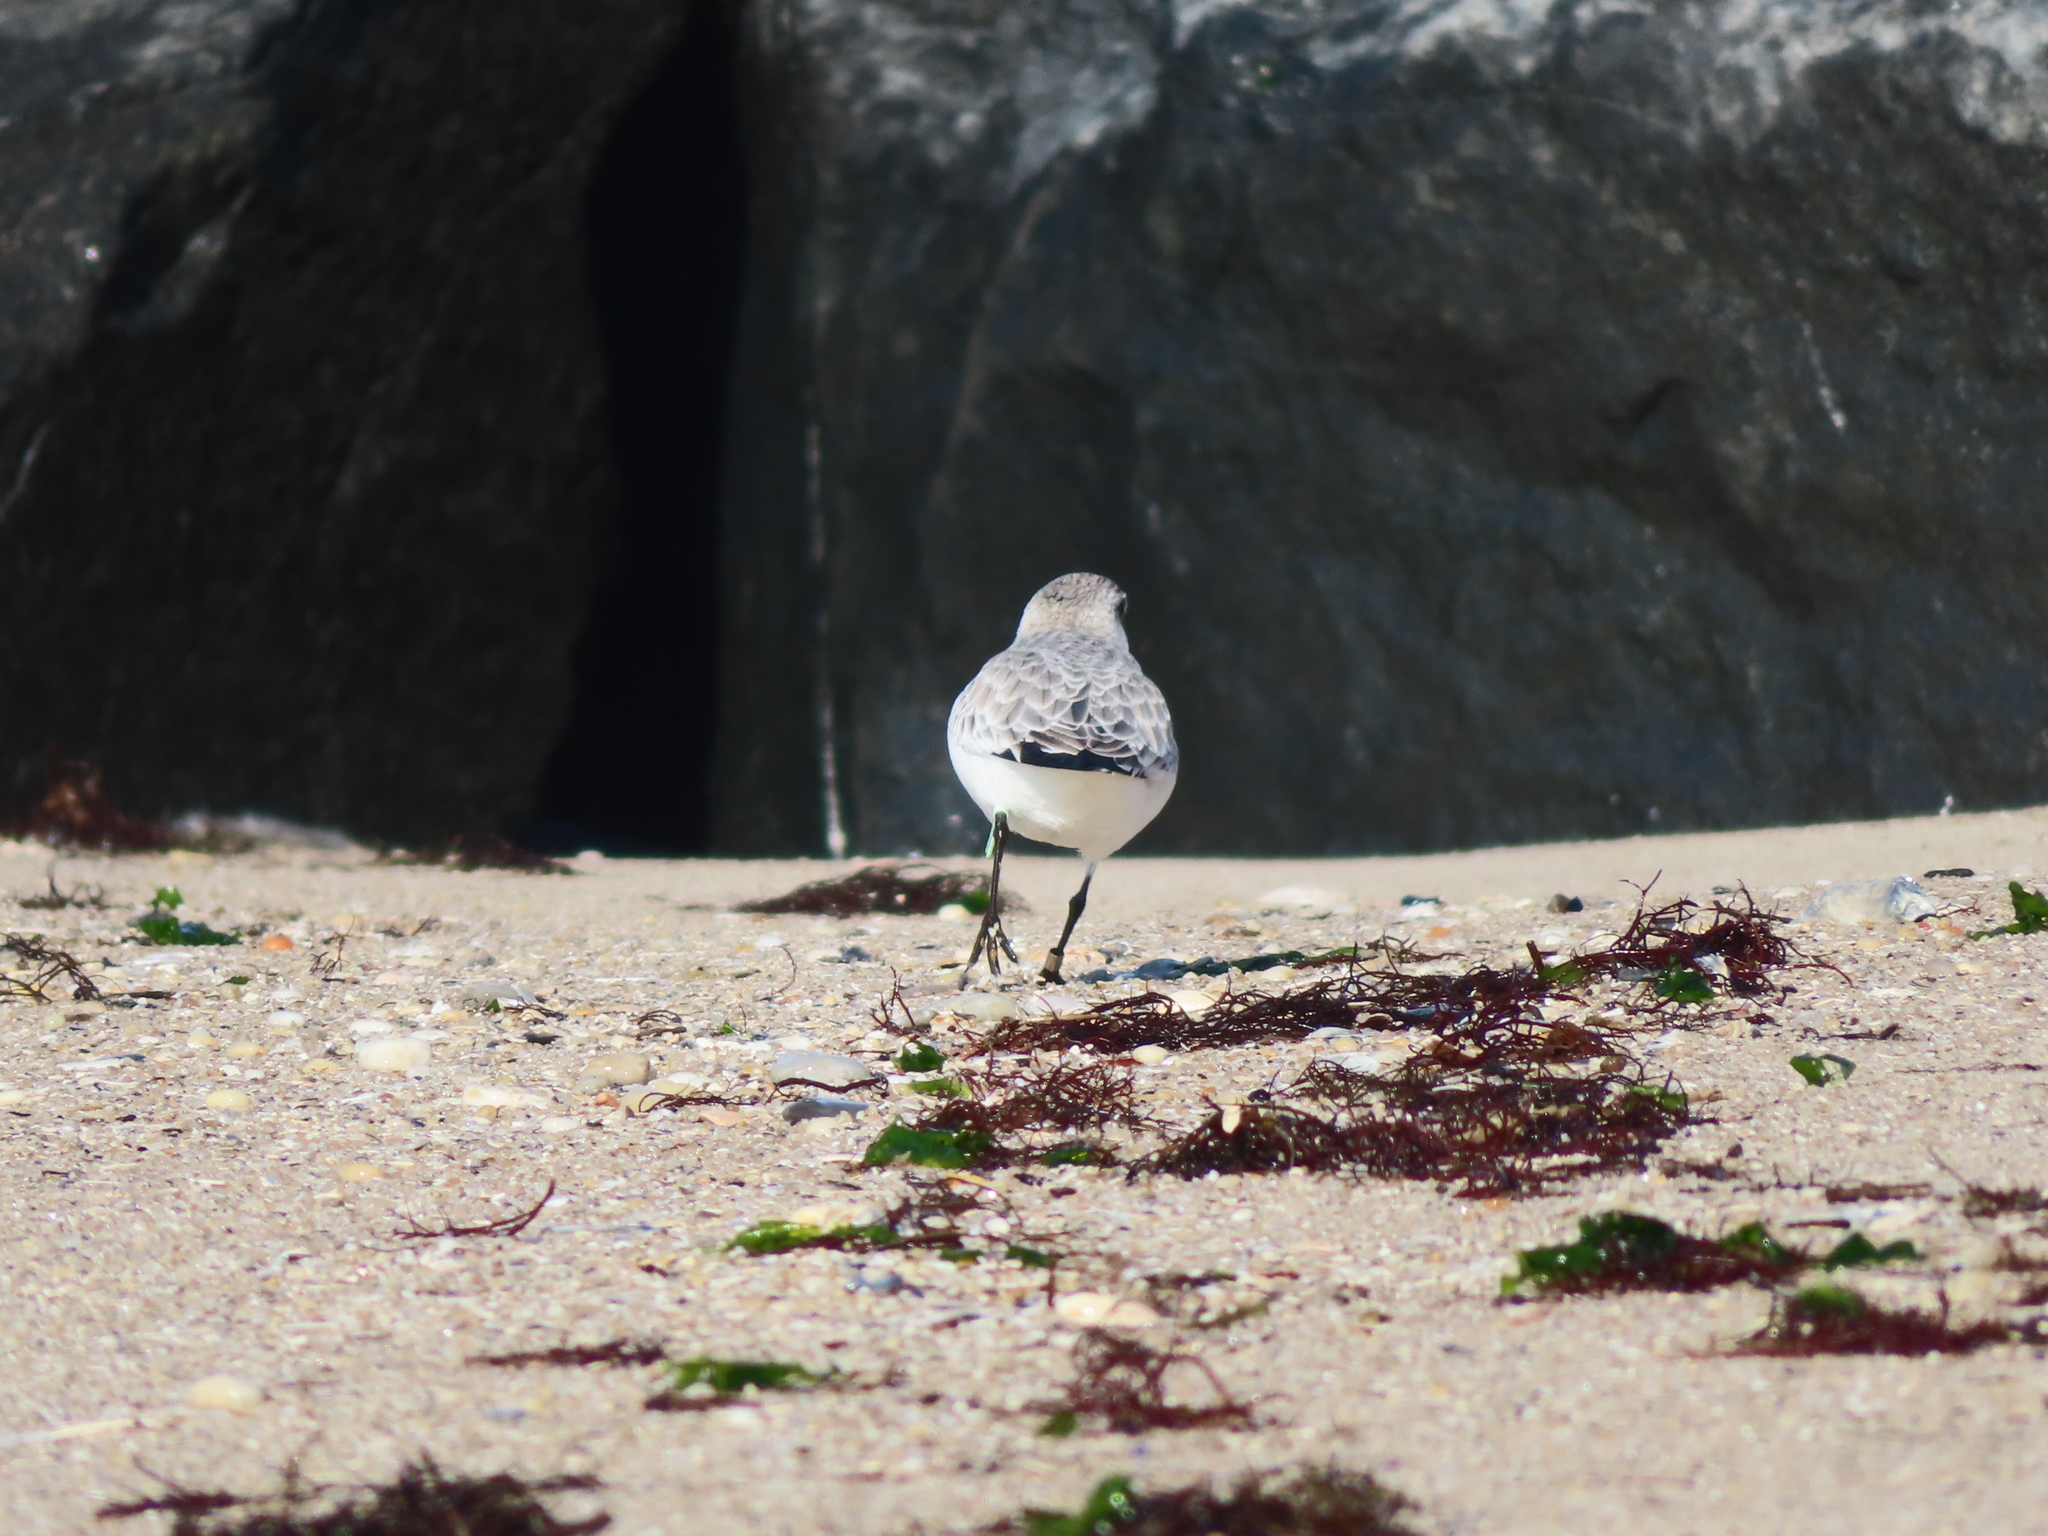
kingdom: Animalia
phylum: Chordata
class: Aves
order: Charadriiformes
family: Scolopacidae
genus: Calidris
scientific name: Calidris alba
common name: Sanderling
